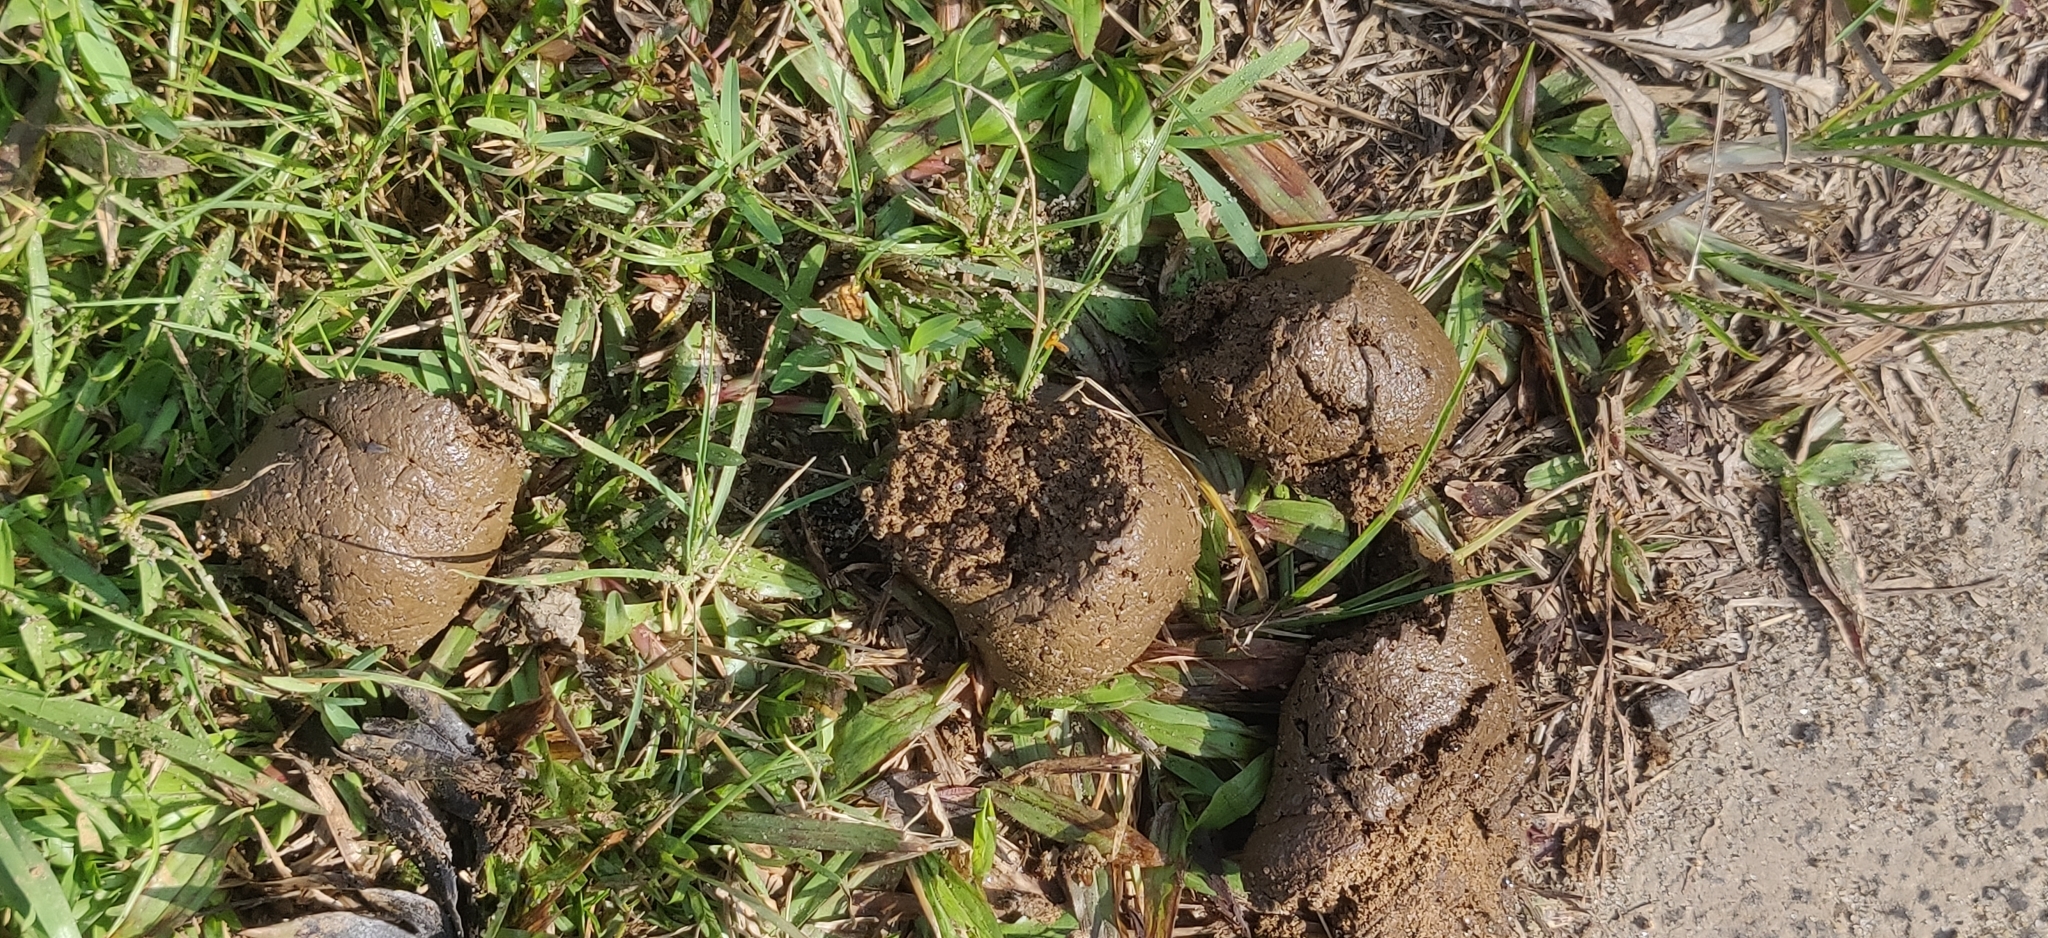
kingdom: Animalia
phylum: Chordata
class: Mammalia
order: Carnivora
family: Ursidae
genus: Melursus
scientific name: Melursus ursinus
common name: Sloth bear
